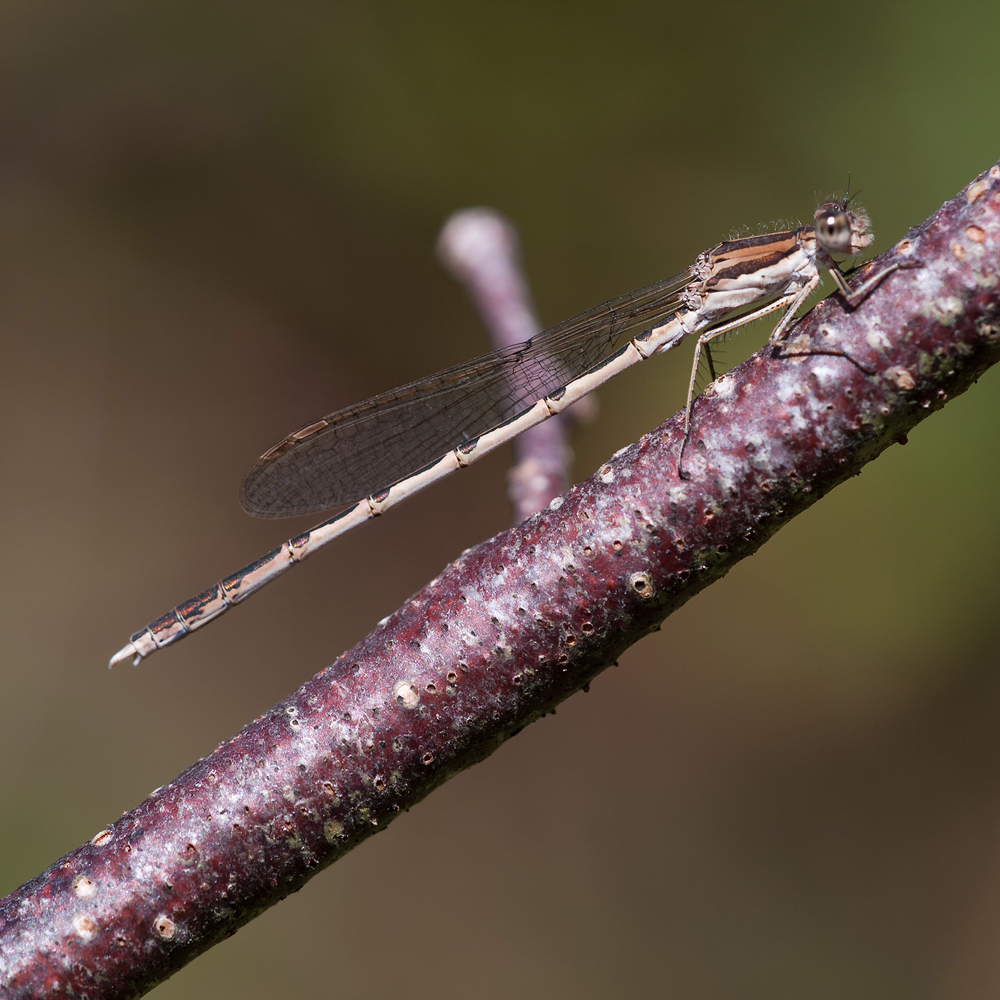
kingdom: Animalia
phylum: Arthropoda
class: Insecta
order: Odonata
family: Lestidae
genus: Sympecma
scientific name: Sympecma fusca
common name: Common winter damsel
